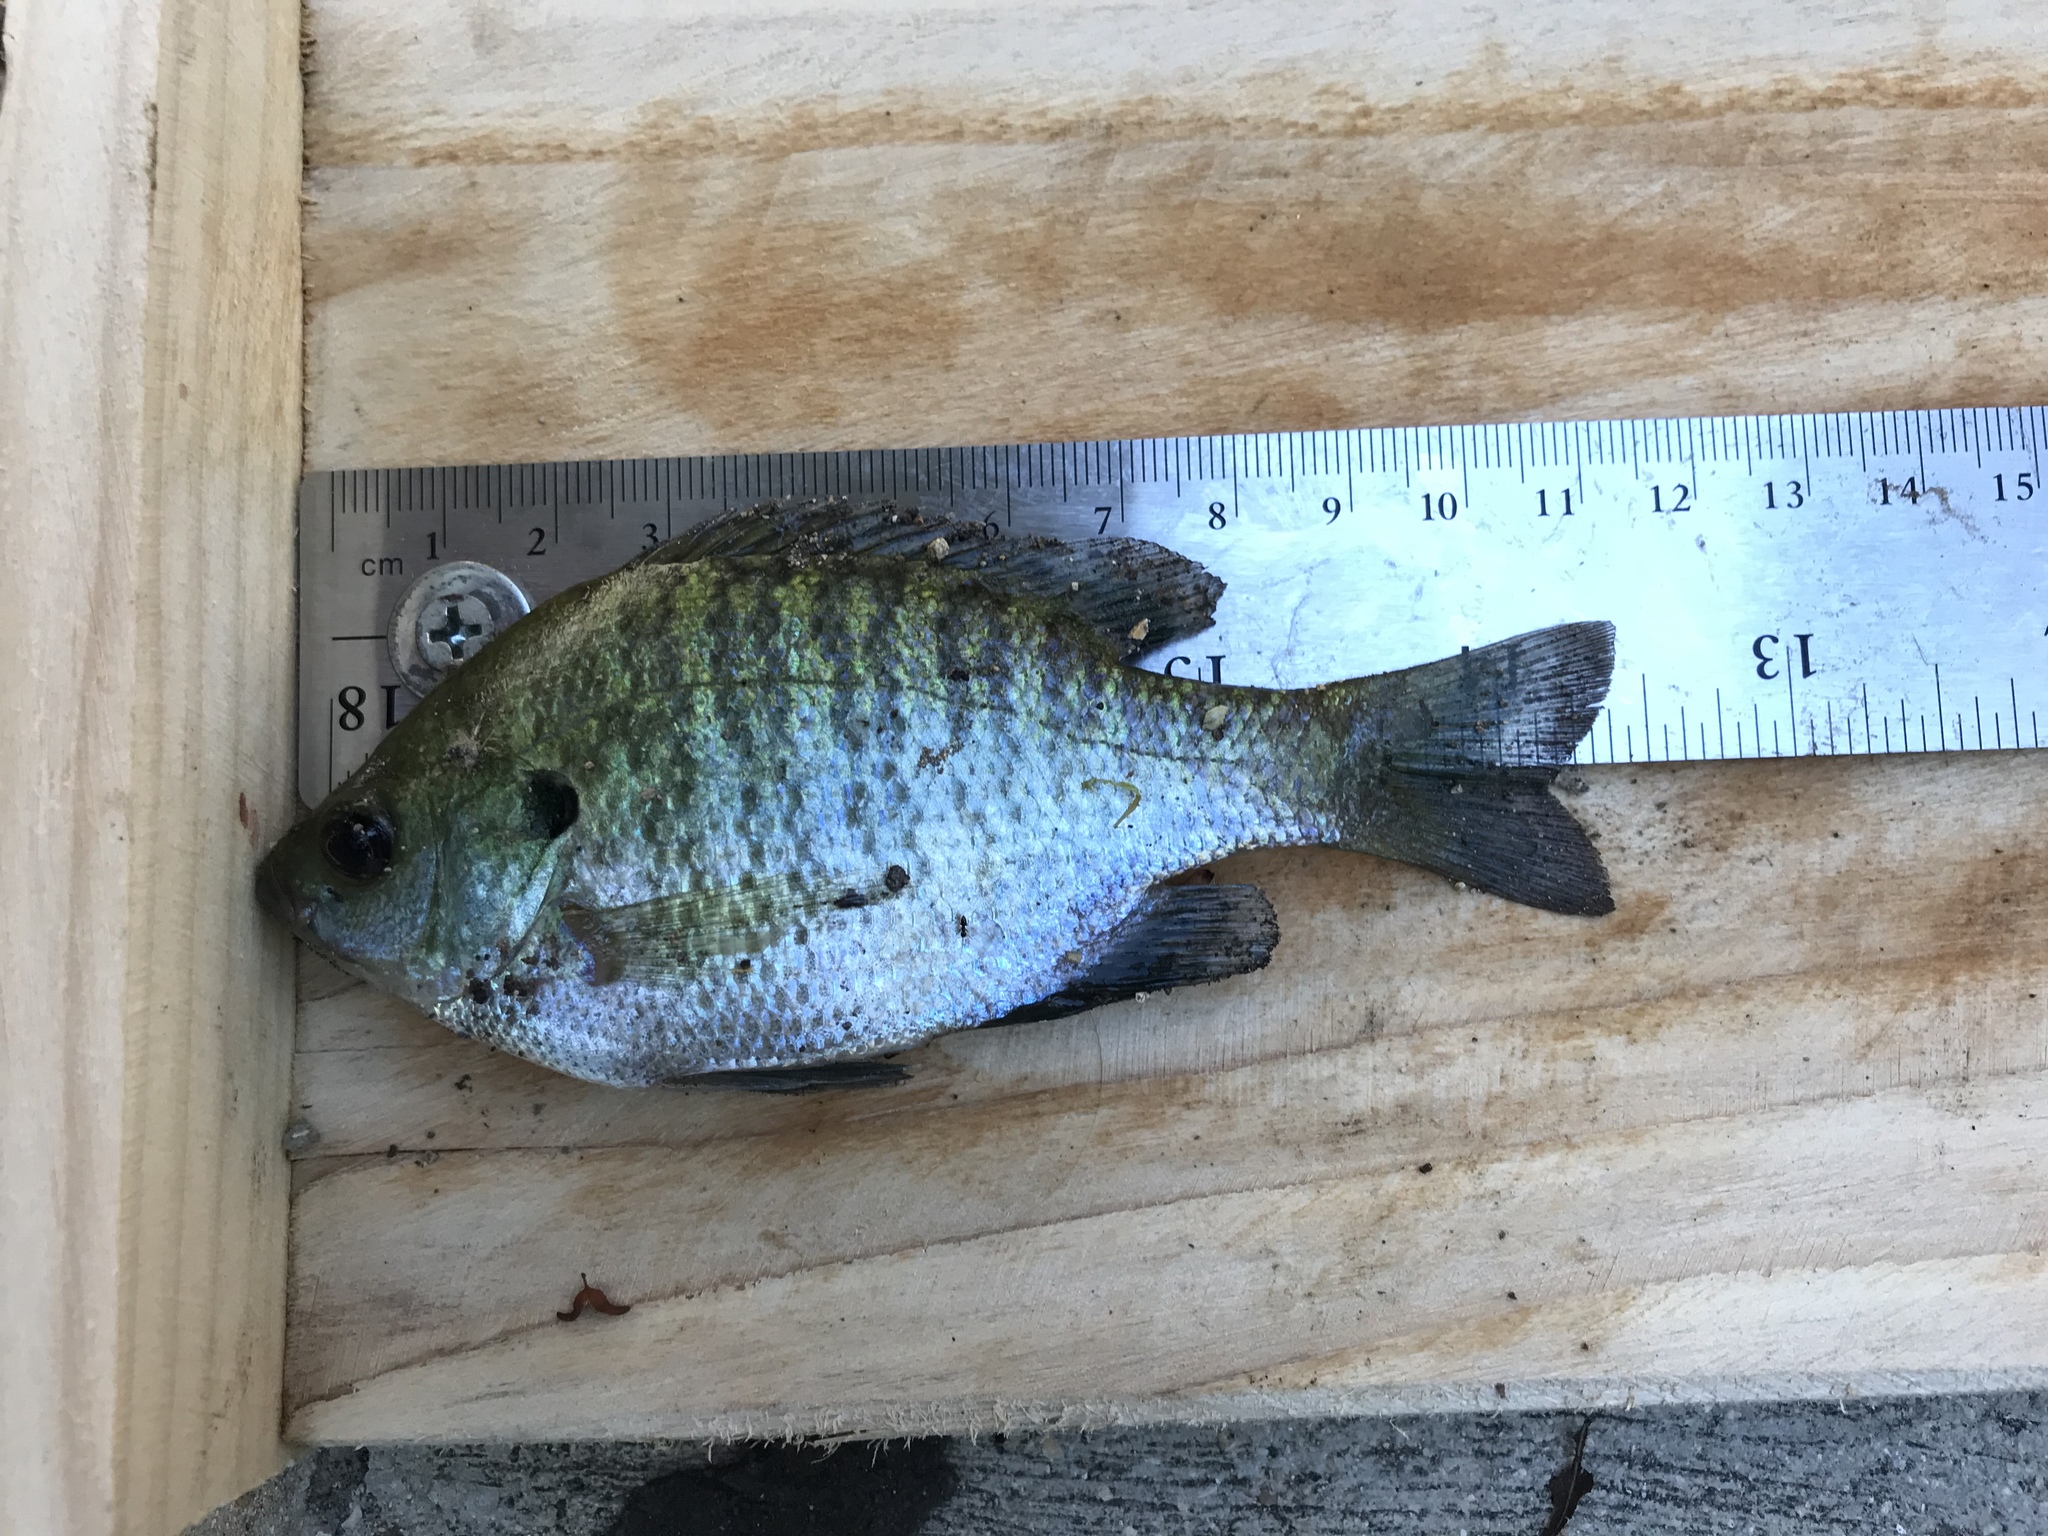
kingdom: Animalia
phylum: Chordata
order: Perciformes
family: Centrarchidae
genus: Lepomis
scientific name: Lepomis macrochirus
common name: Bluegill
